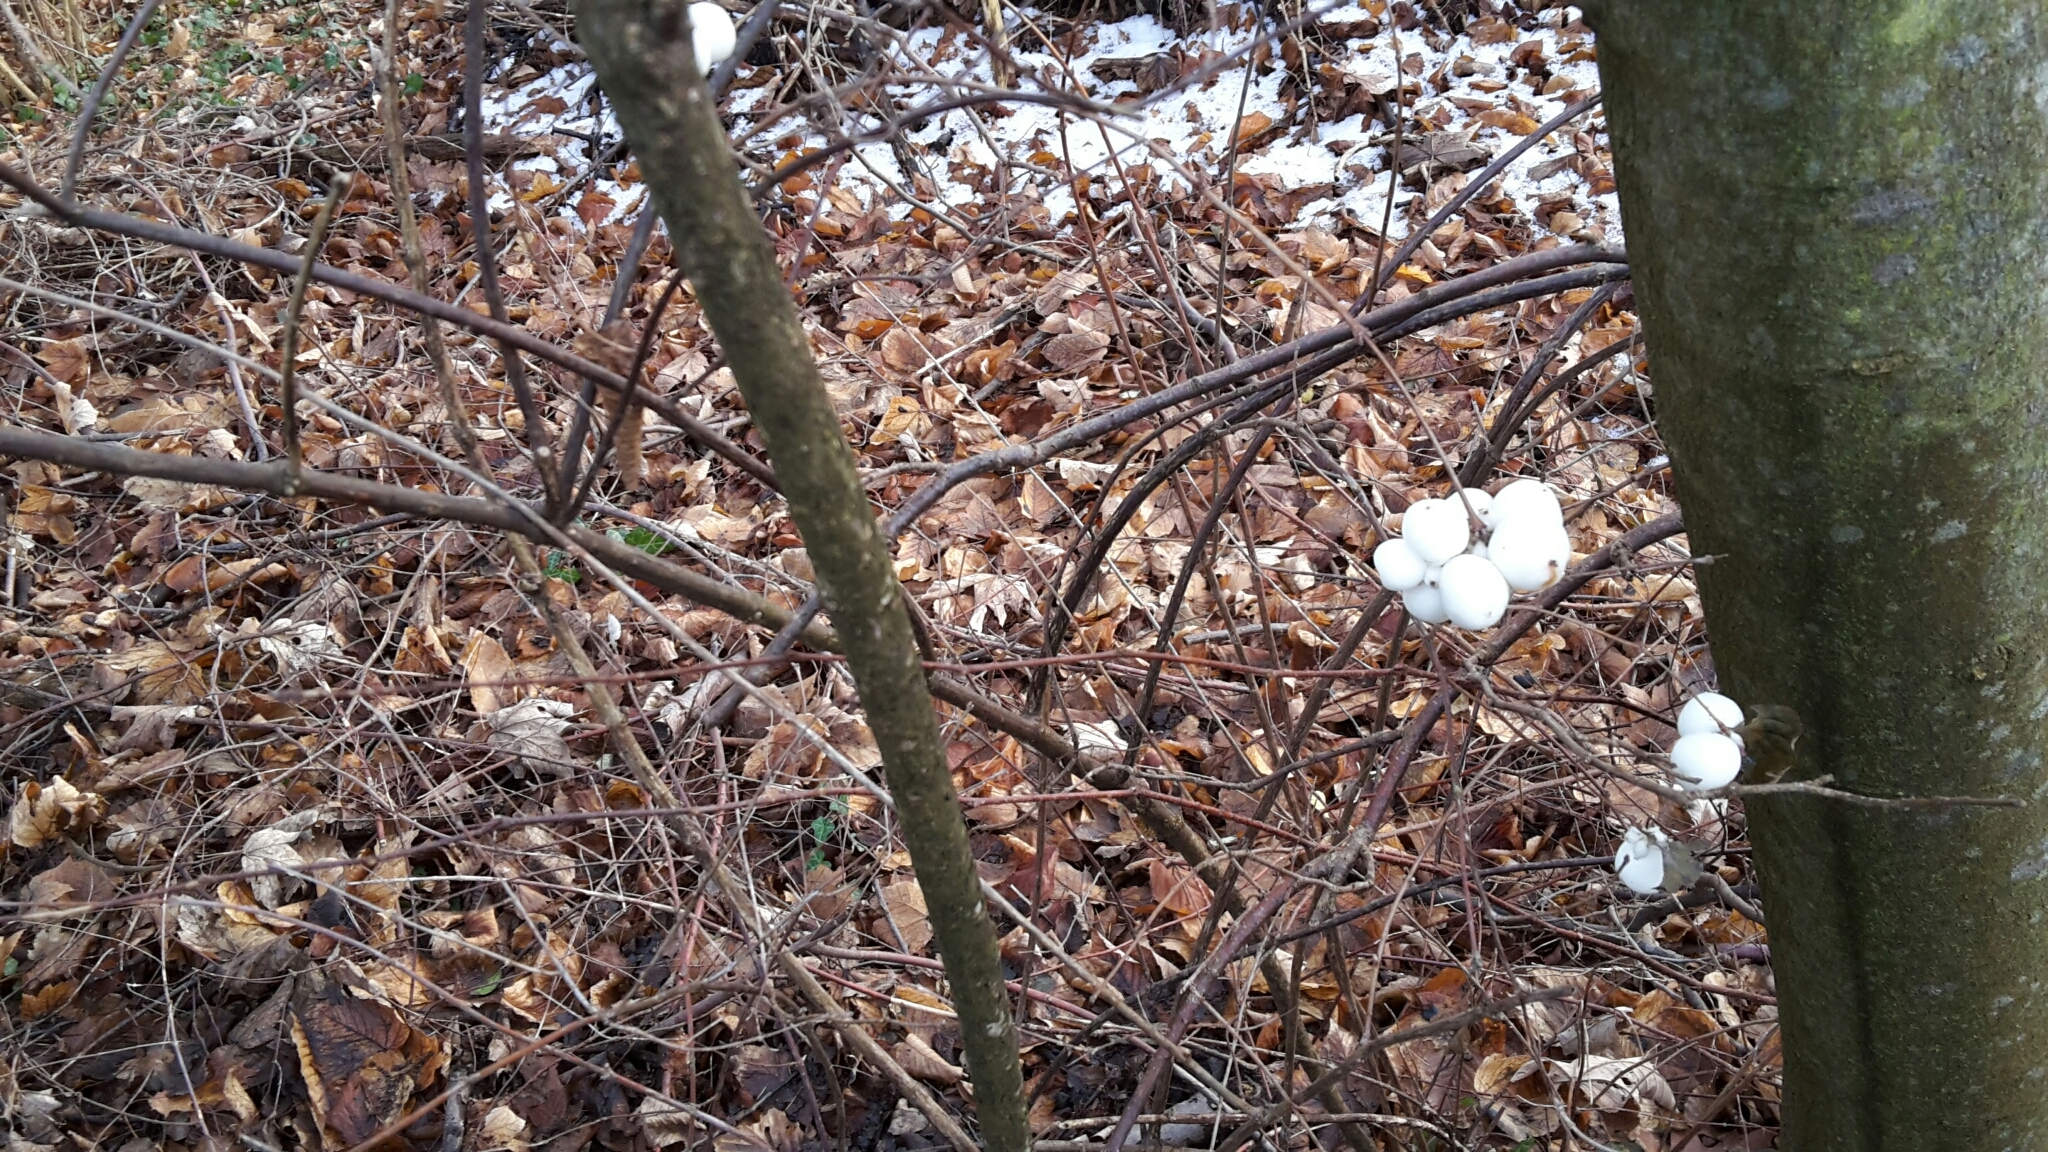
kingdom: Plantae
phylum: Tracheophyta
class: Magnoliopsida
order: Dipsacales
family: Caprifoliaceae
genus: Symphoricarpos
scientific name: Symphoricarpos albus
